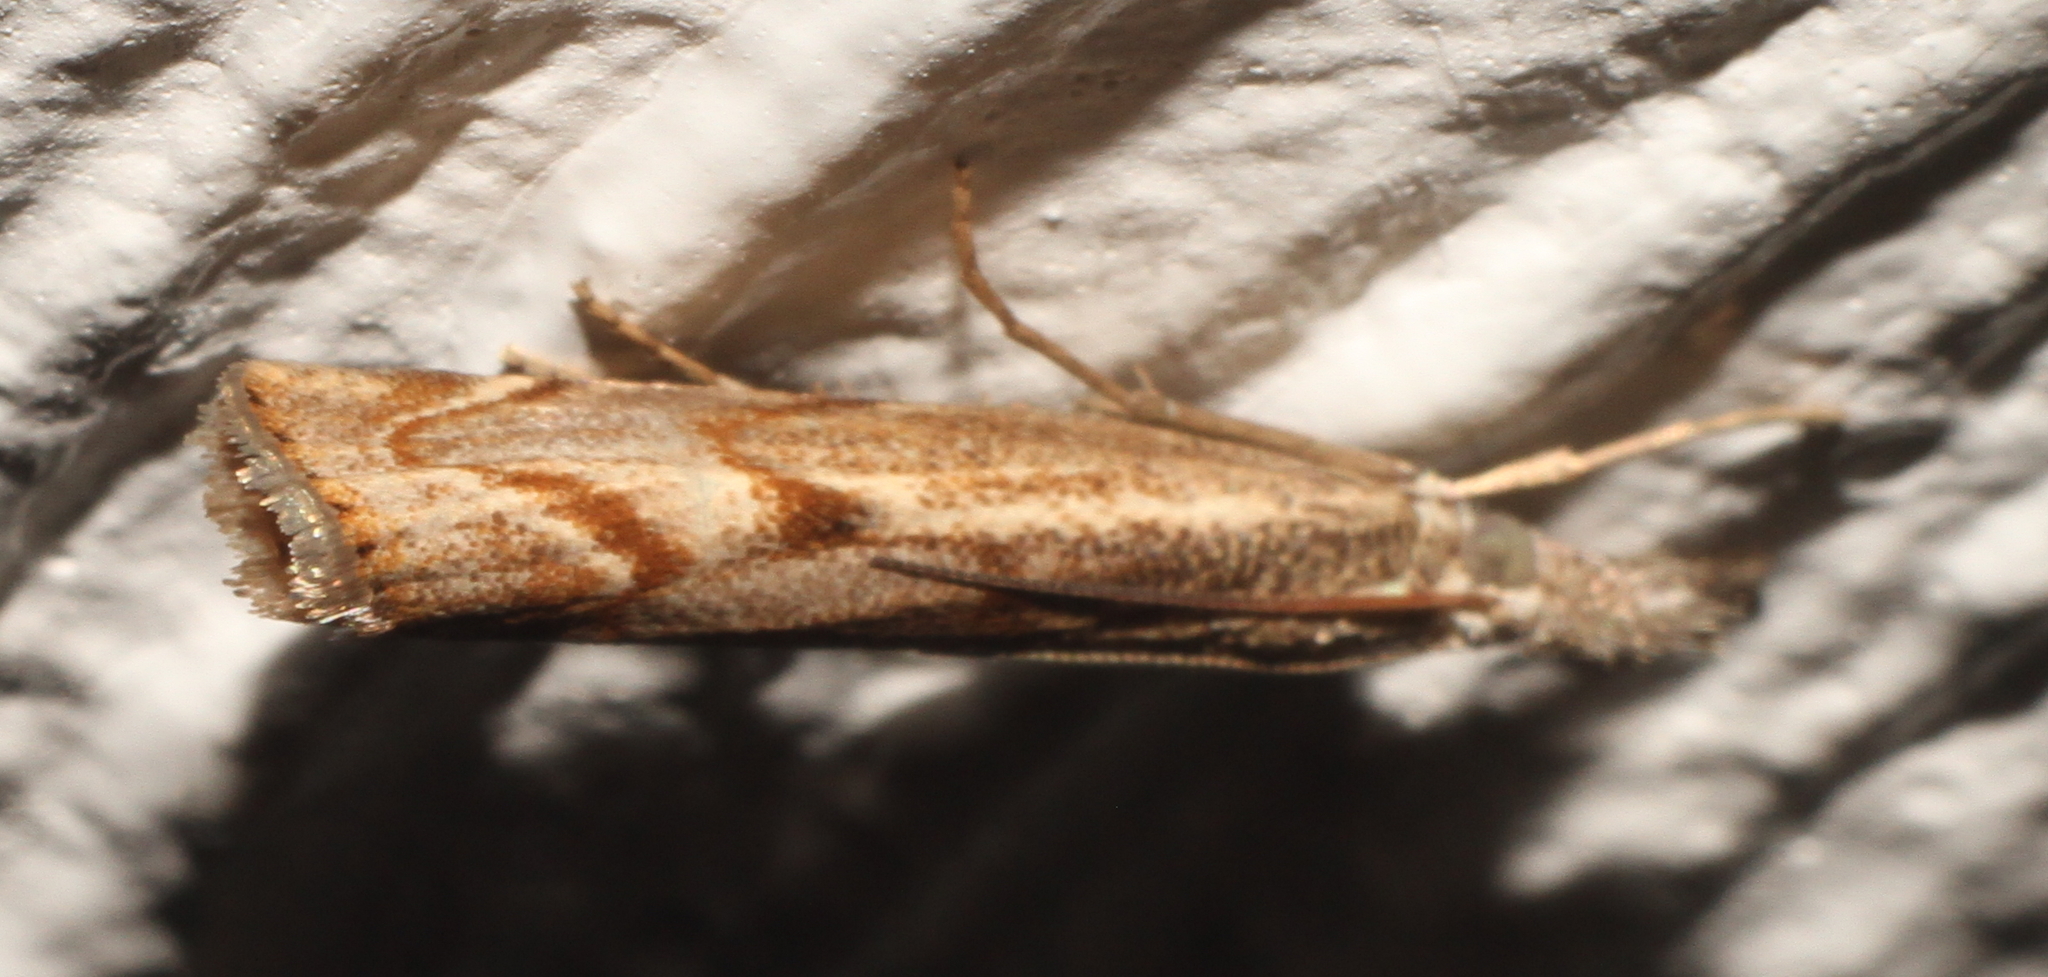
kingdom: Animalia
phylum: Arthropoda
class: Insecta
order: Lepidoptera
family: Crambidae
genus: Agriphila
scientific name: Agriphila geniculea
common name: Elbow-stripe grass-veneer
